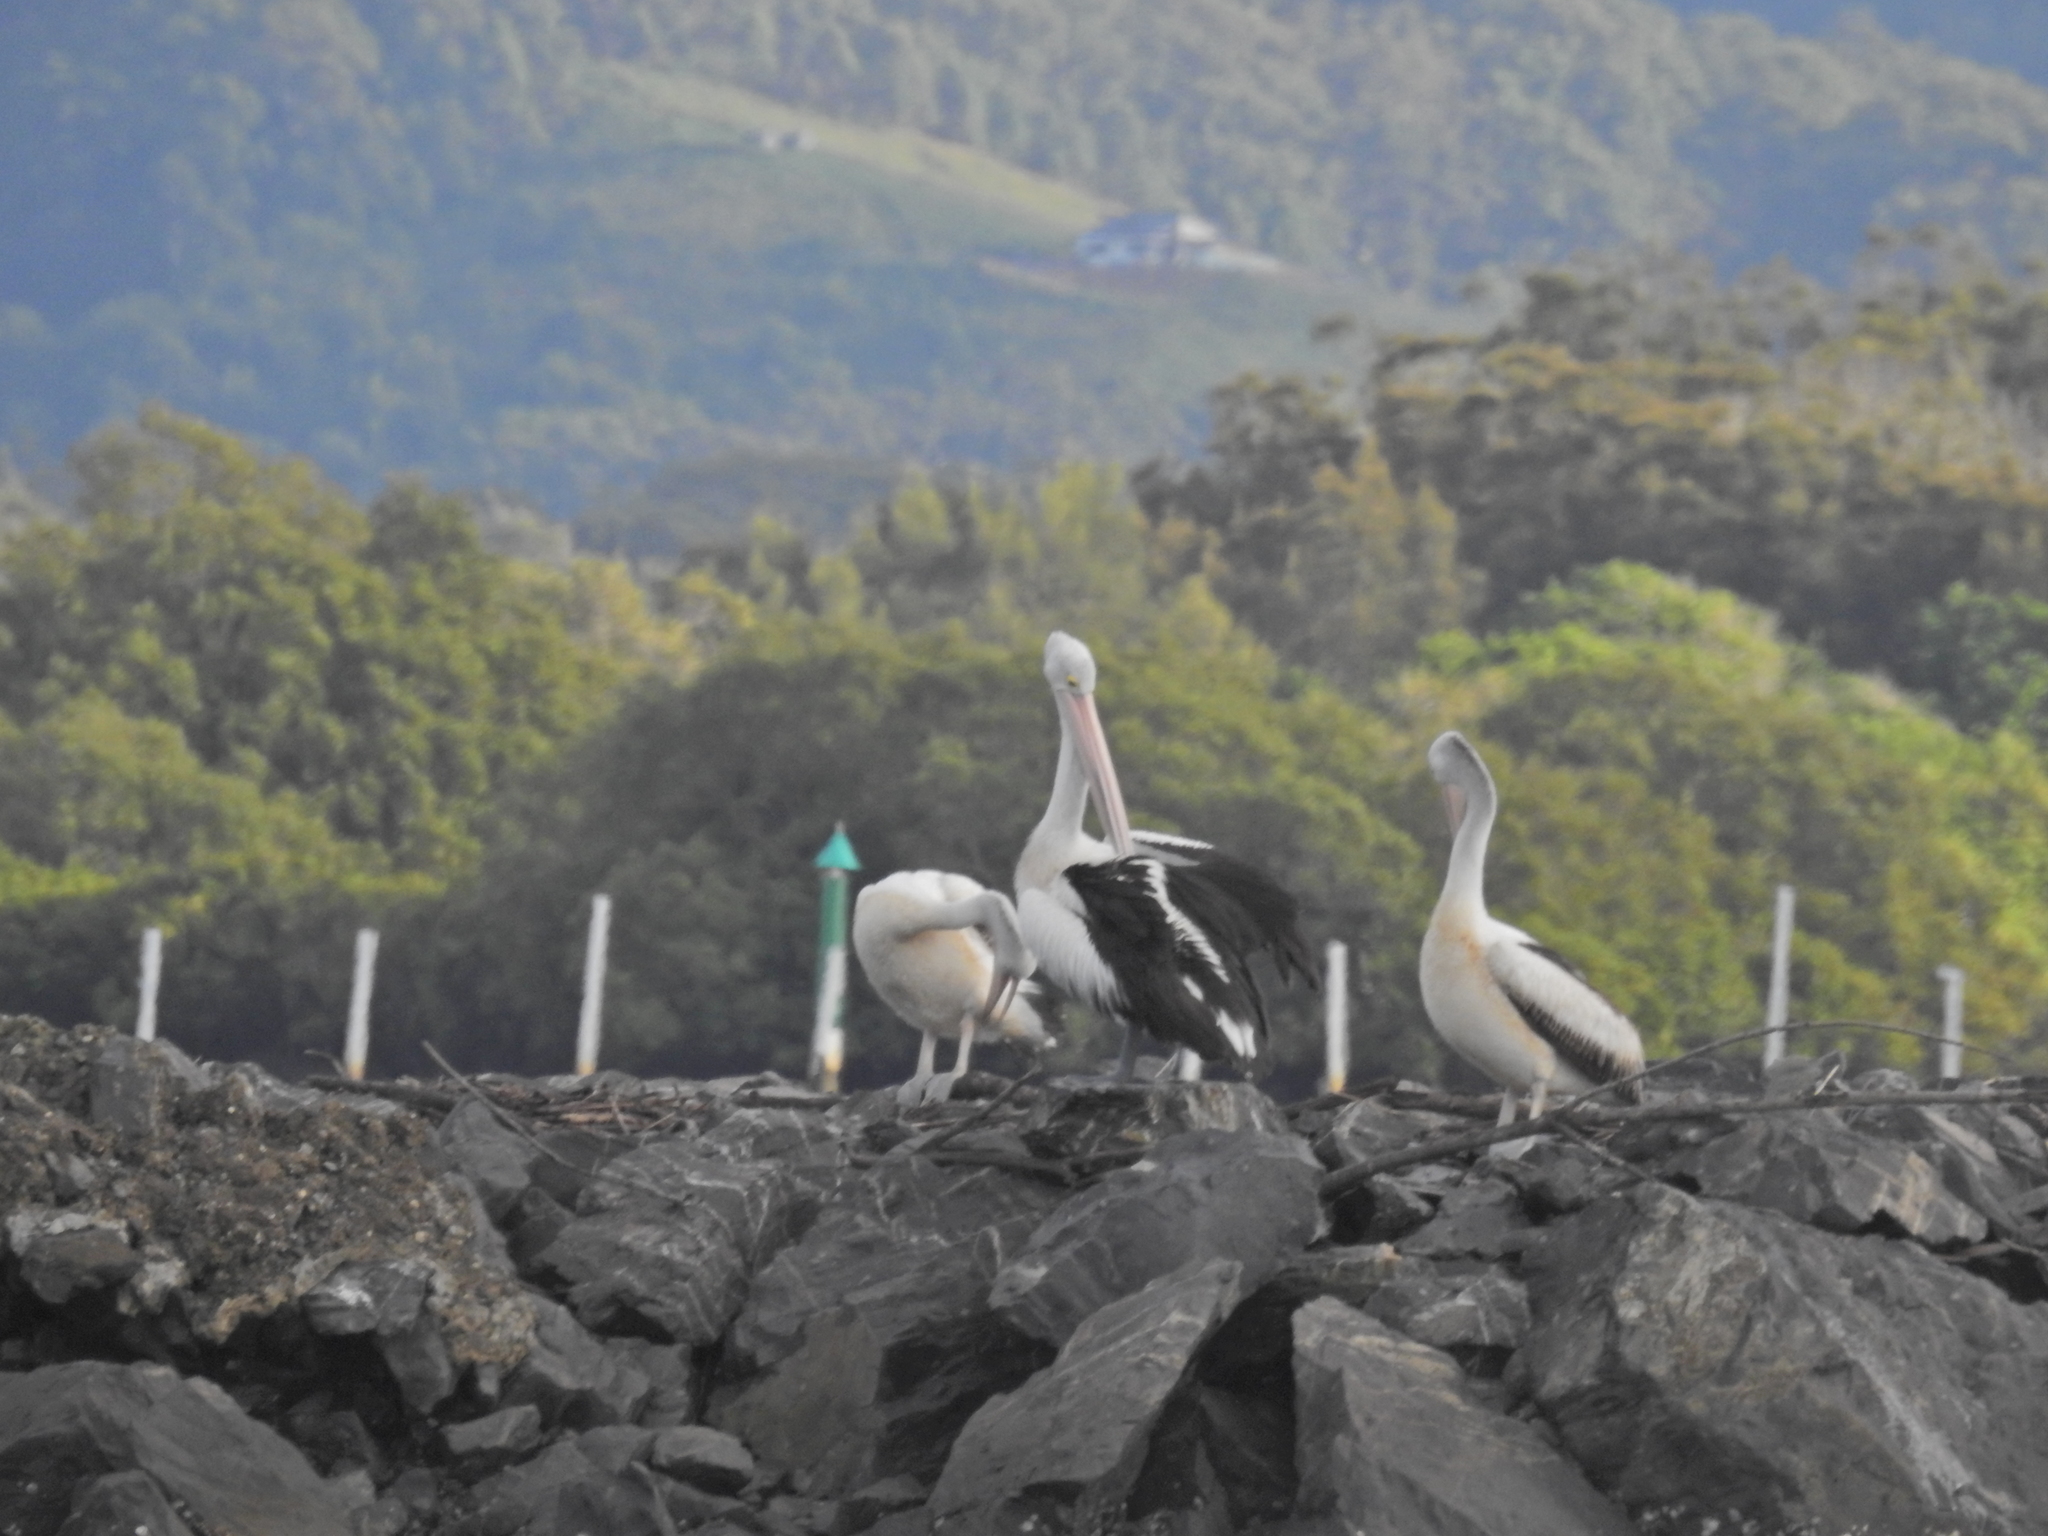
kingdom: Animalia
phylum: Chordata
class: Aves
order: Pelecaniformes
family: Pelecanidae
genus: Pelecanus
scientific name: Pelecanus conspicillatus
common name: Australian pelican
